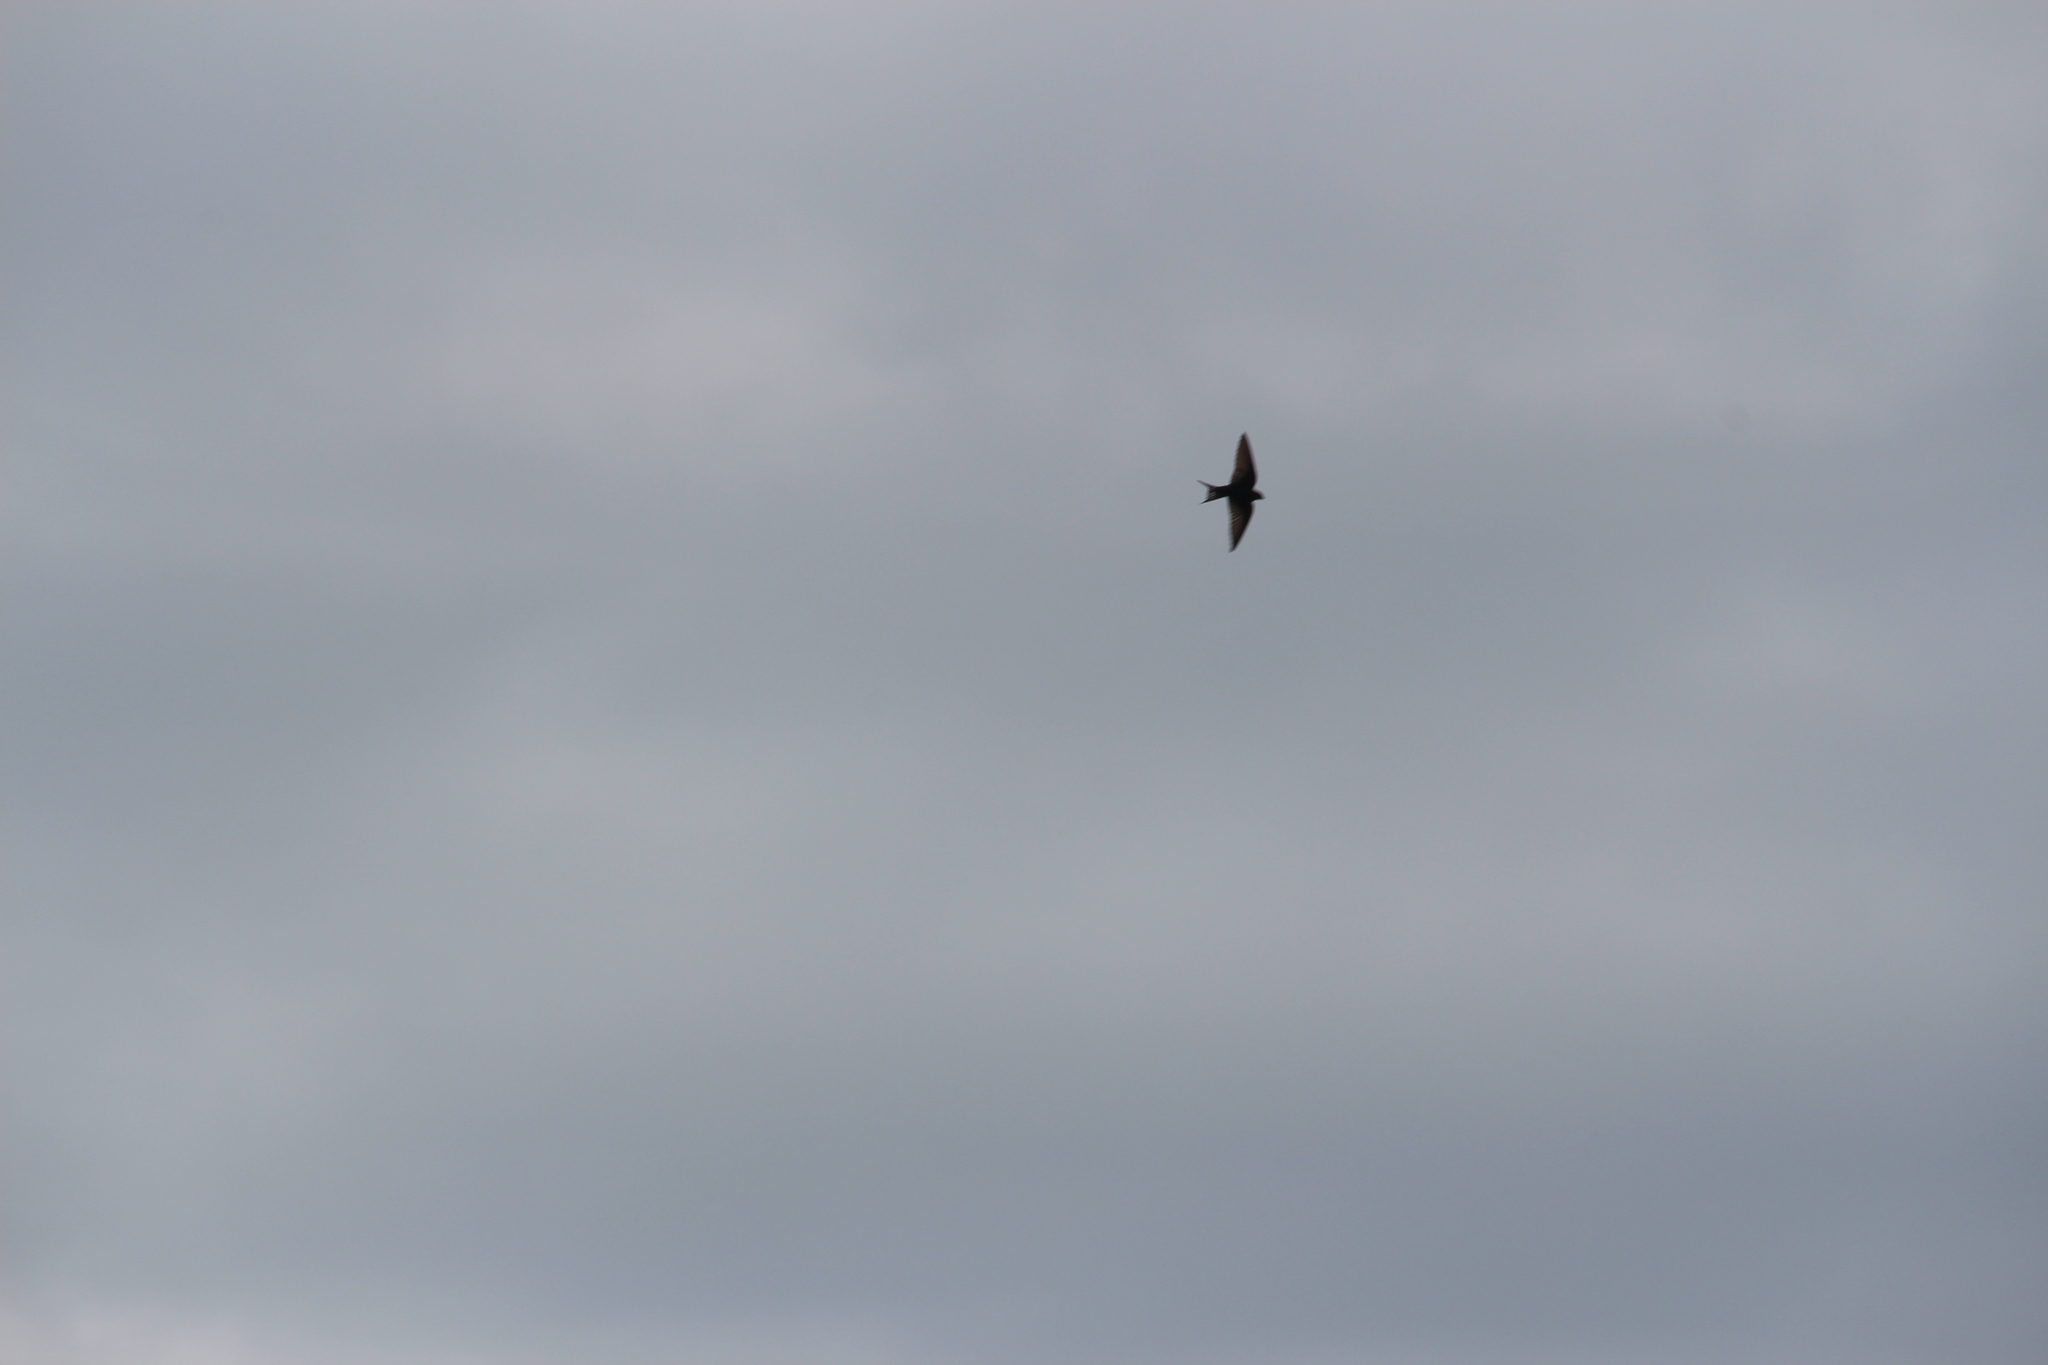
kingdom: Animalia
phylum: Chordata
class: Aves
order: Passeriformes
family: Hirundinidae
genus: Hirundo
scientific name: Hirundo neoxena
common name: Welcome swallow
